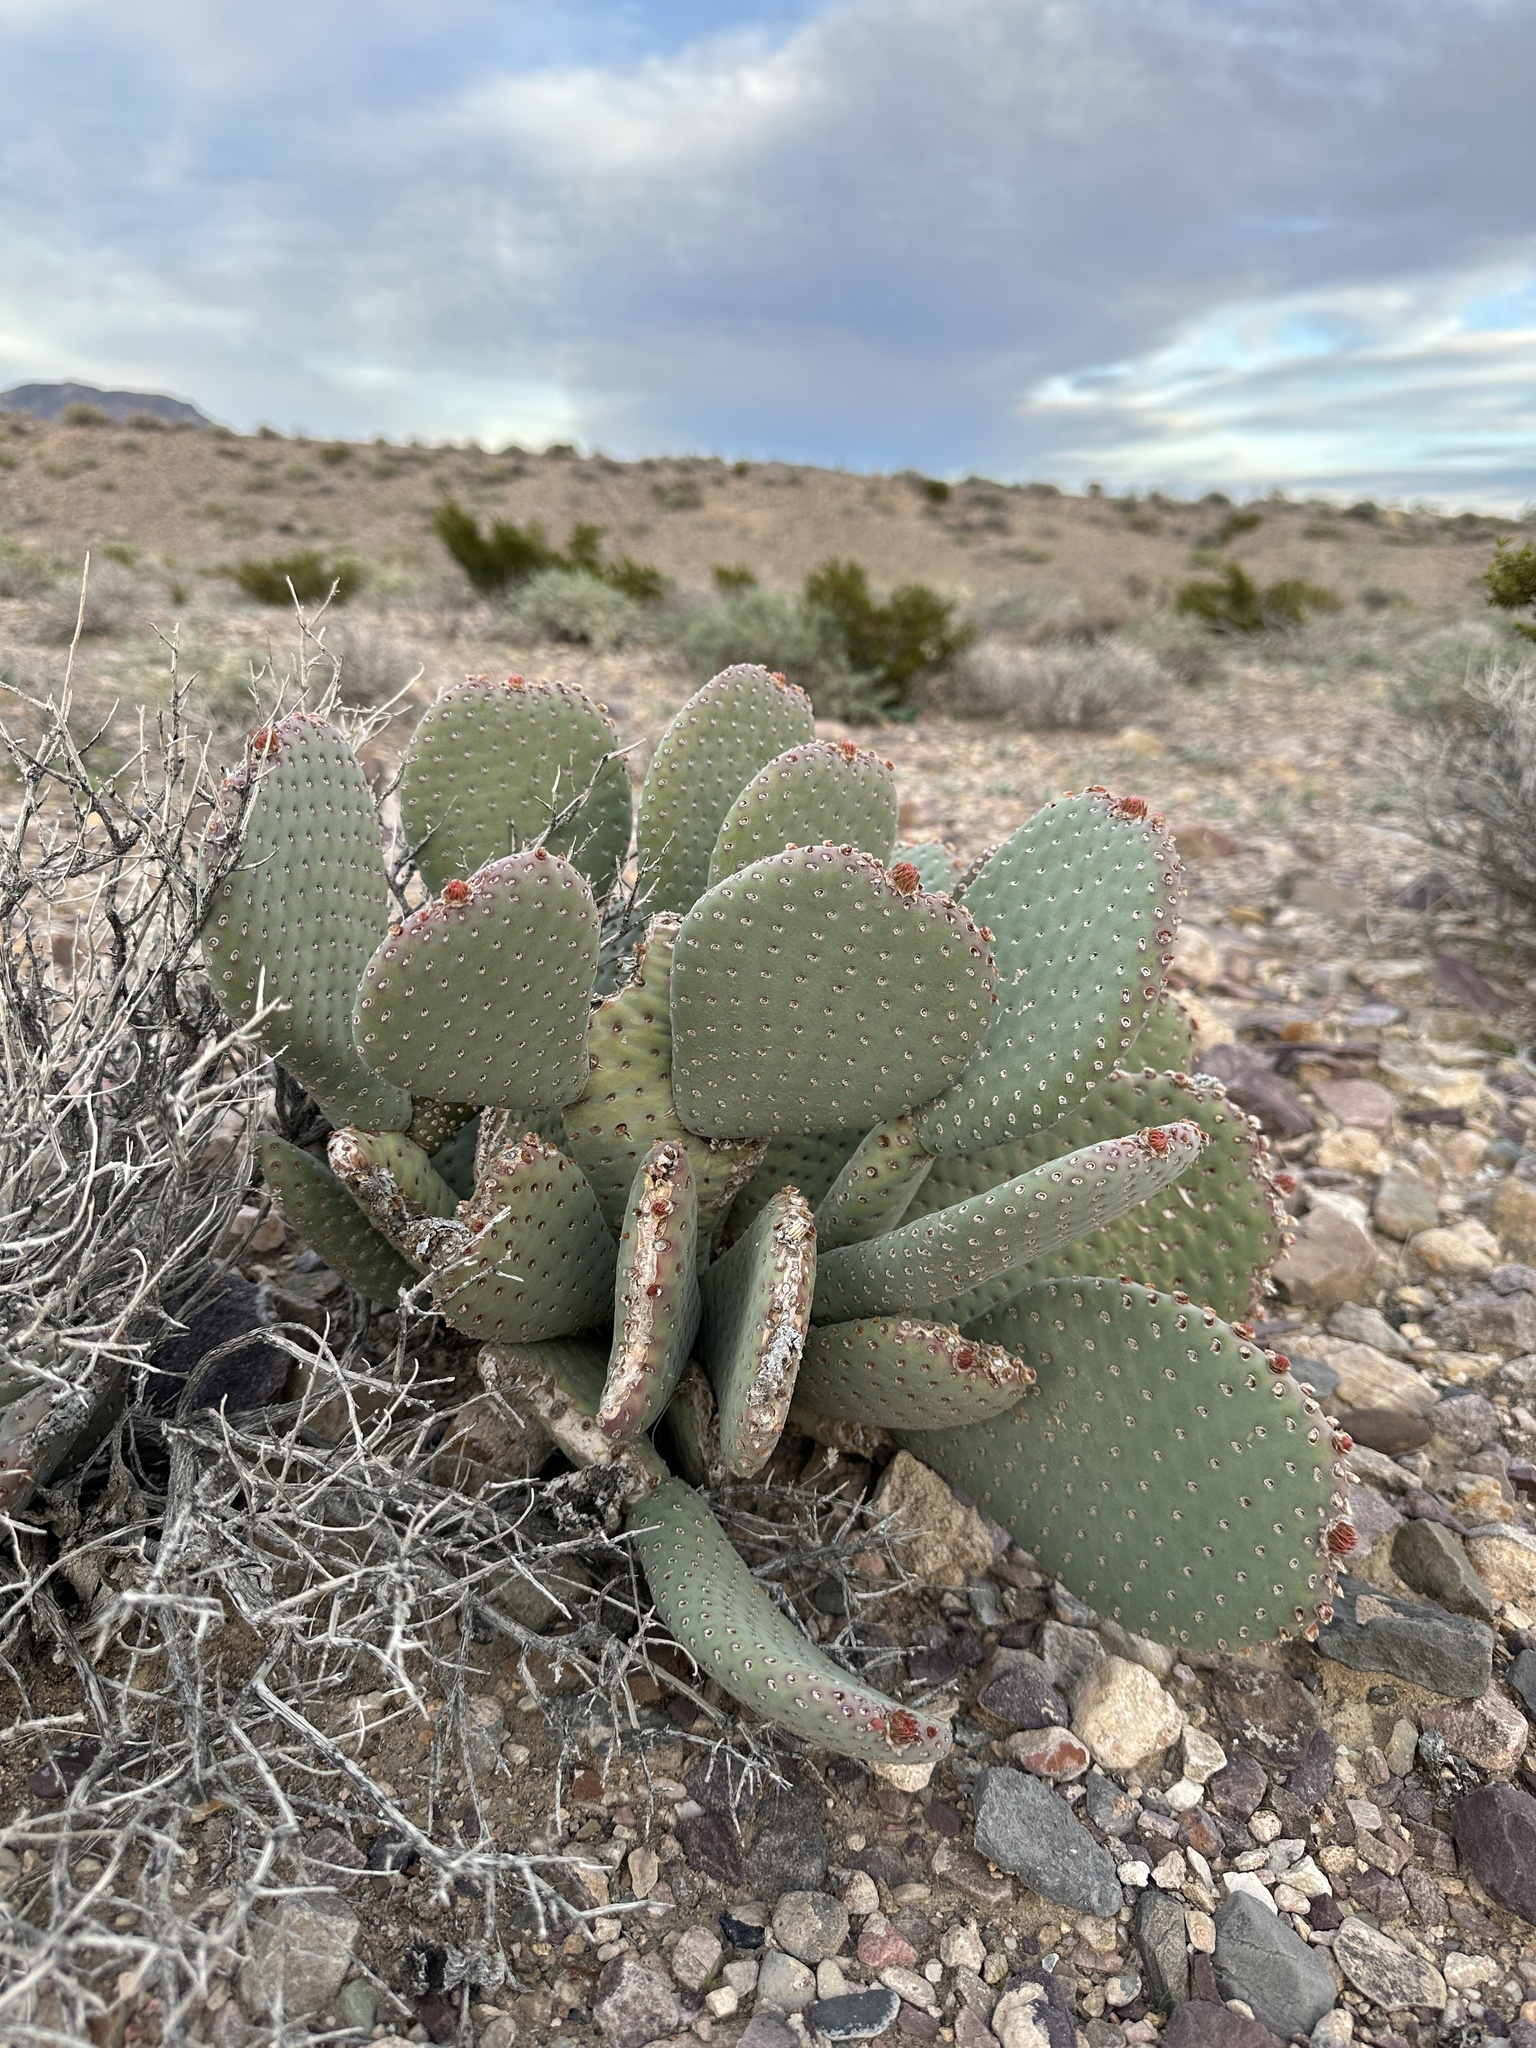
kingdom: Plantae
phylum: Tracheophyta
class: Magnoliopsida
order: Caryophyllales
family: Cactaceae
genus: Opuntia
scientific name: Opuntia basilaris
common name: Beavertail prickly-pear
